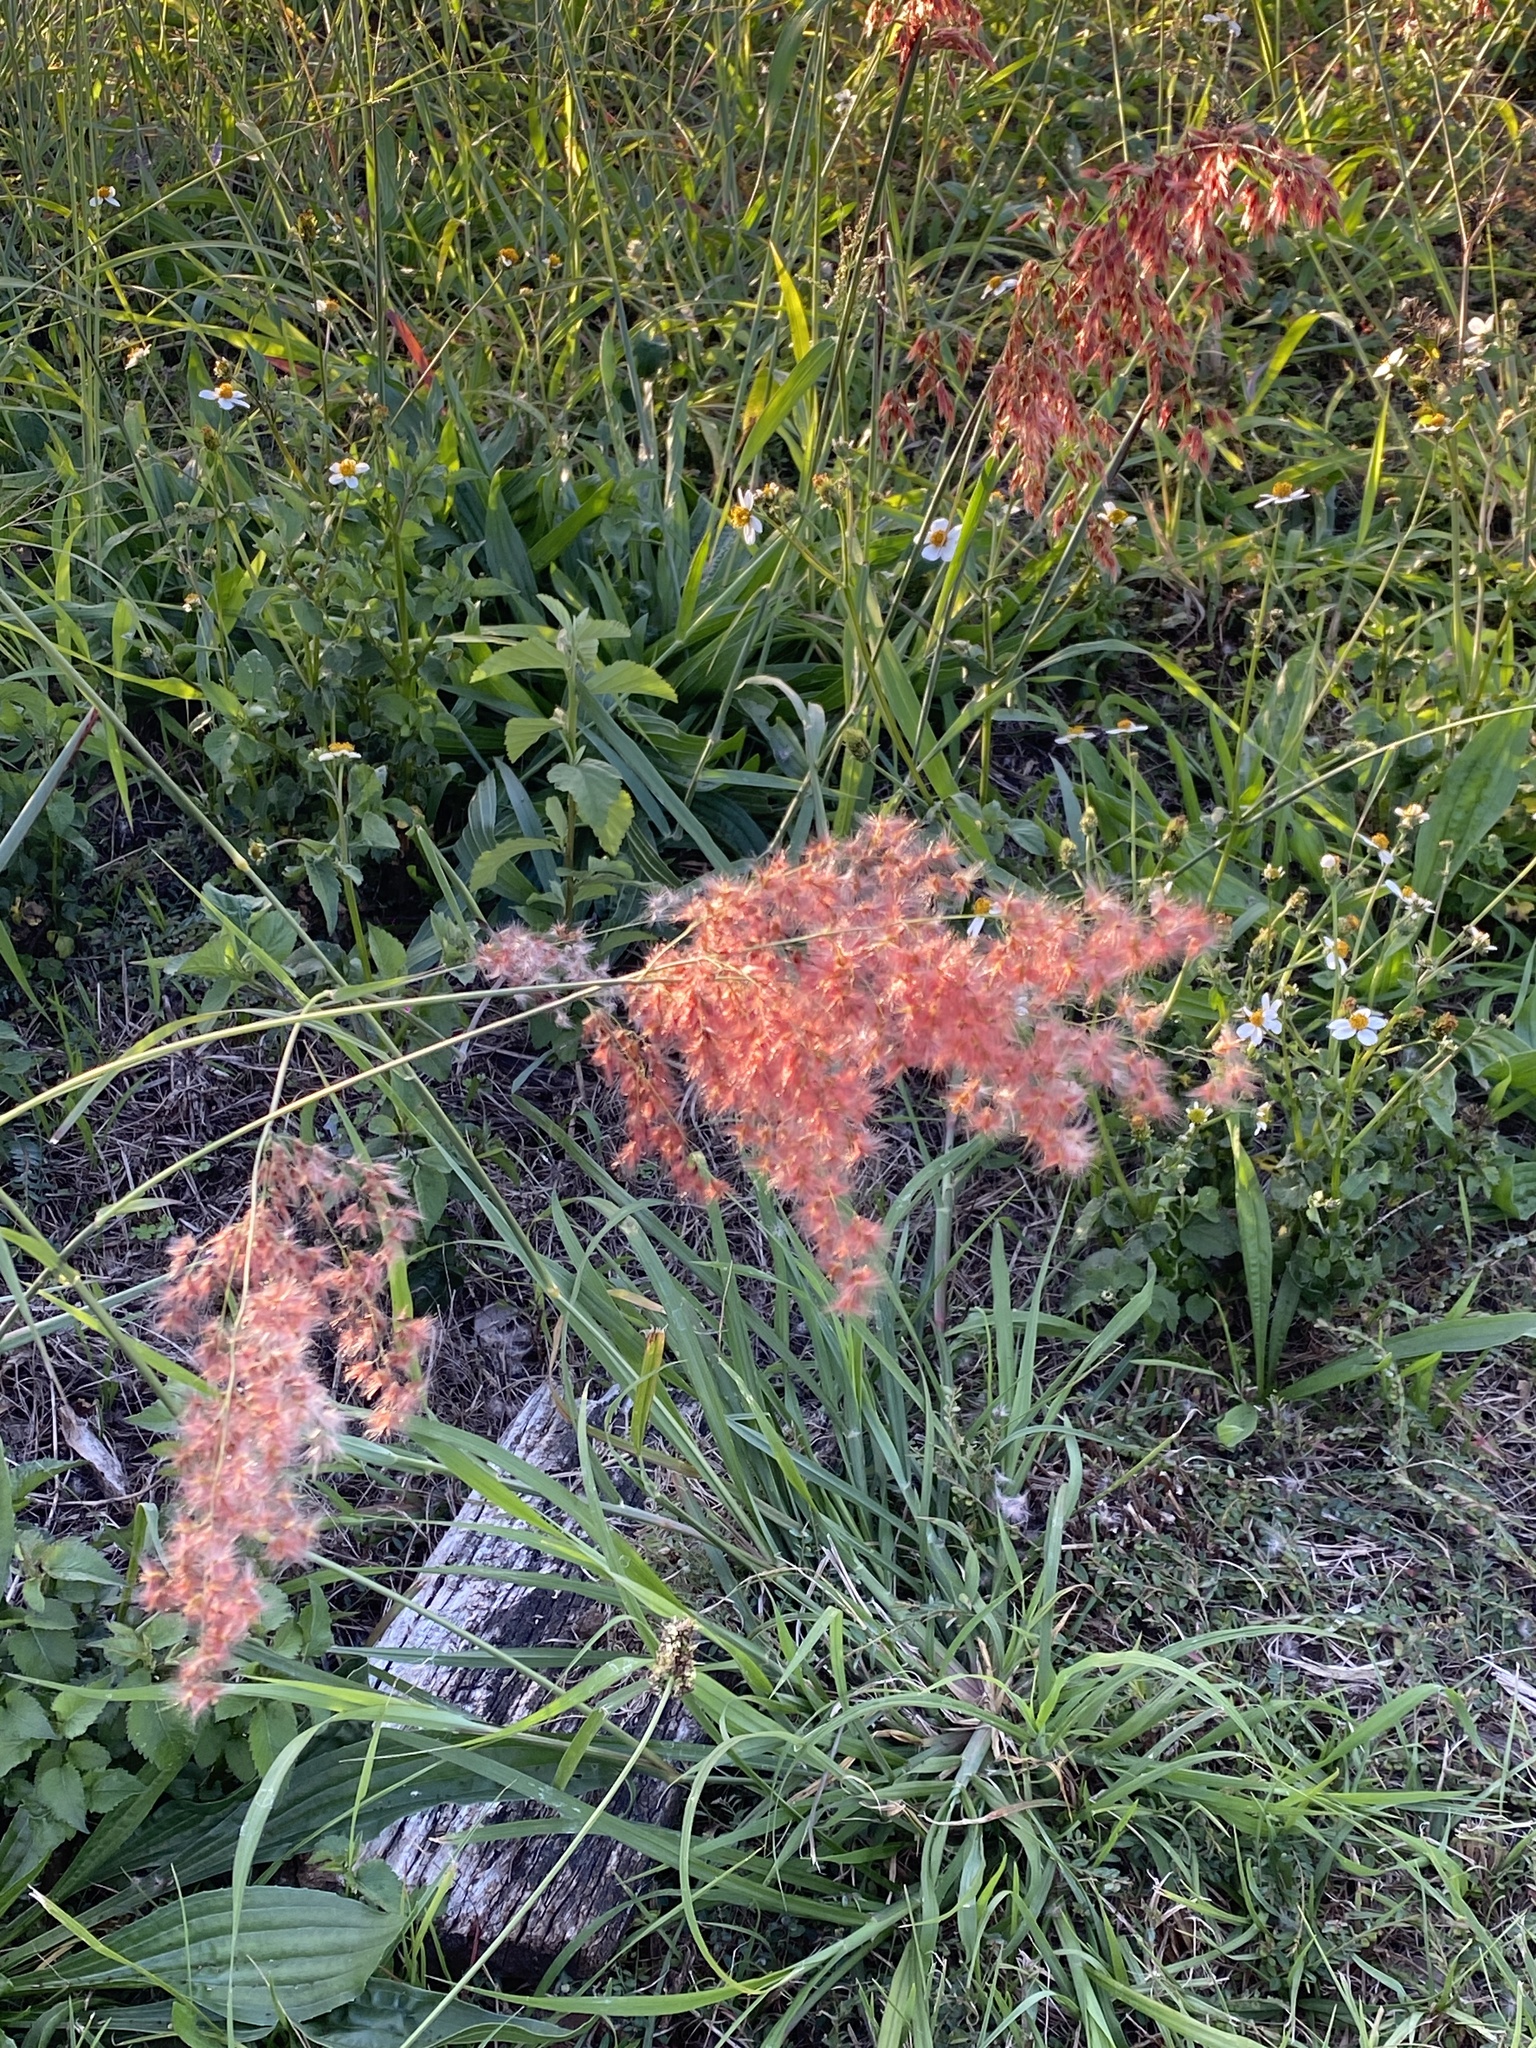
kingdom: Plantae
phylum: Tracheophyta
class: Liliopsida
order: Poales
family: Poaceae
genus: Melinis
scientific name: Melinis repens
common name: Rose natal grass
